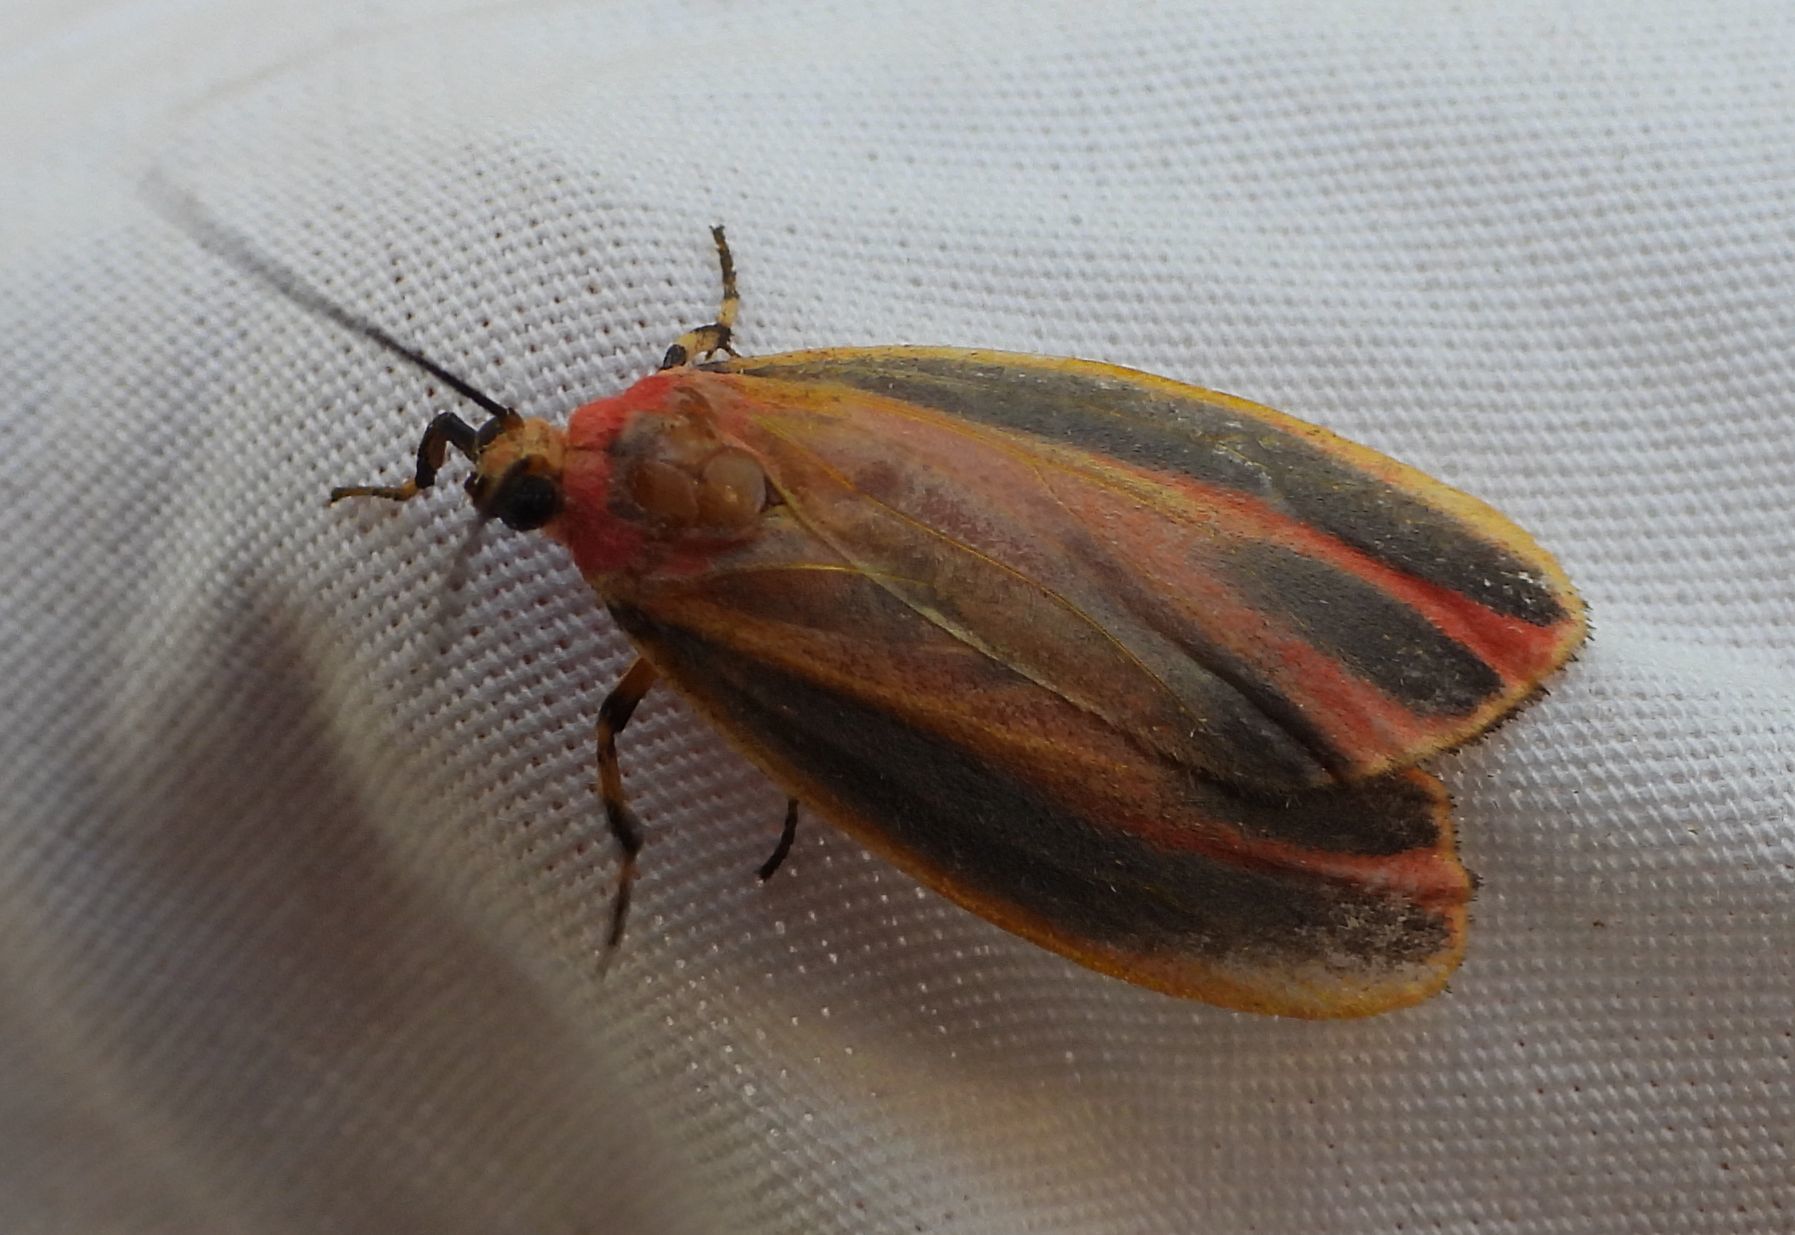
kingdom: Animalia
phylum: Arthropoda
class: Insecta
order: Lepidoptera
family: Erebidae
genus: Hypoprepia
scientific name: Hypoprepia fucosa
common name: Painted lichen moth
